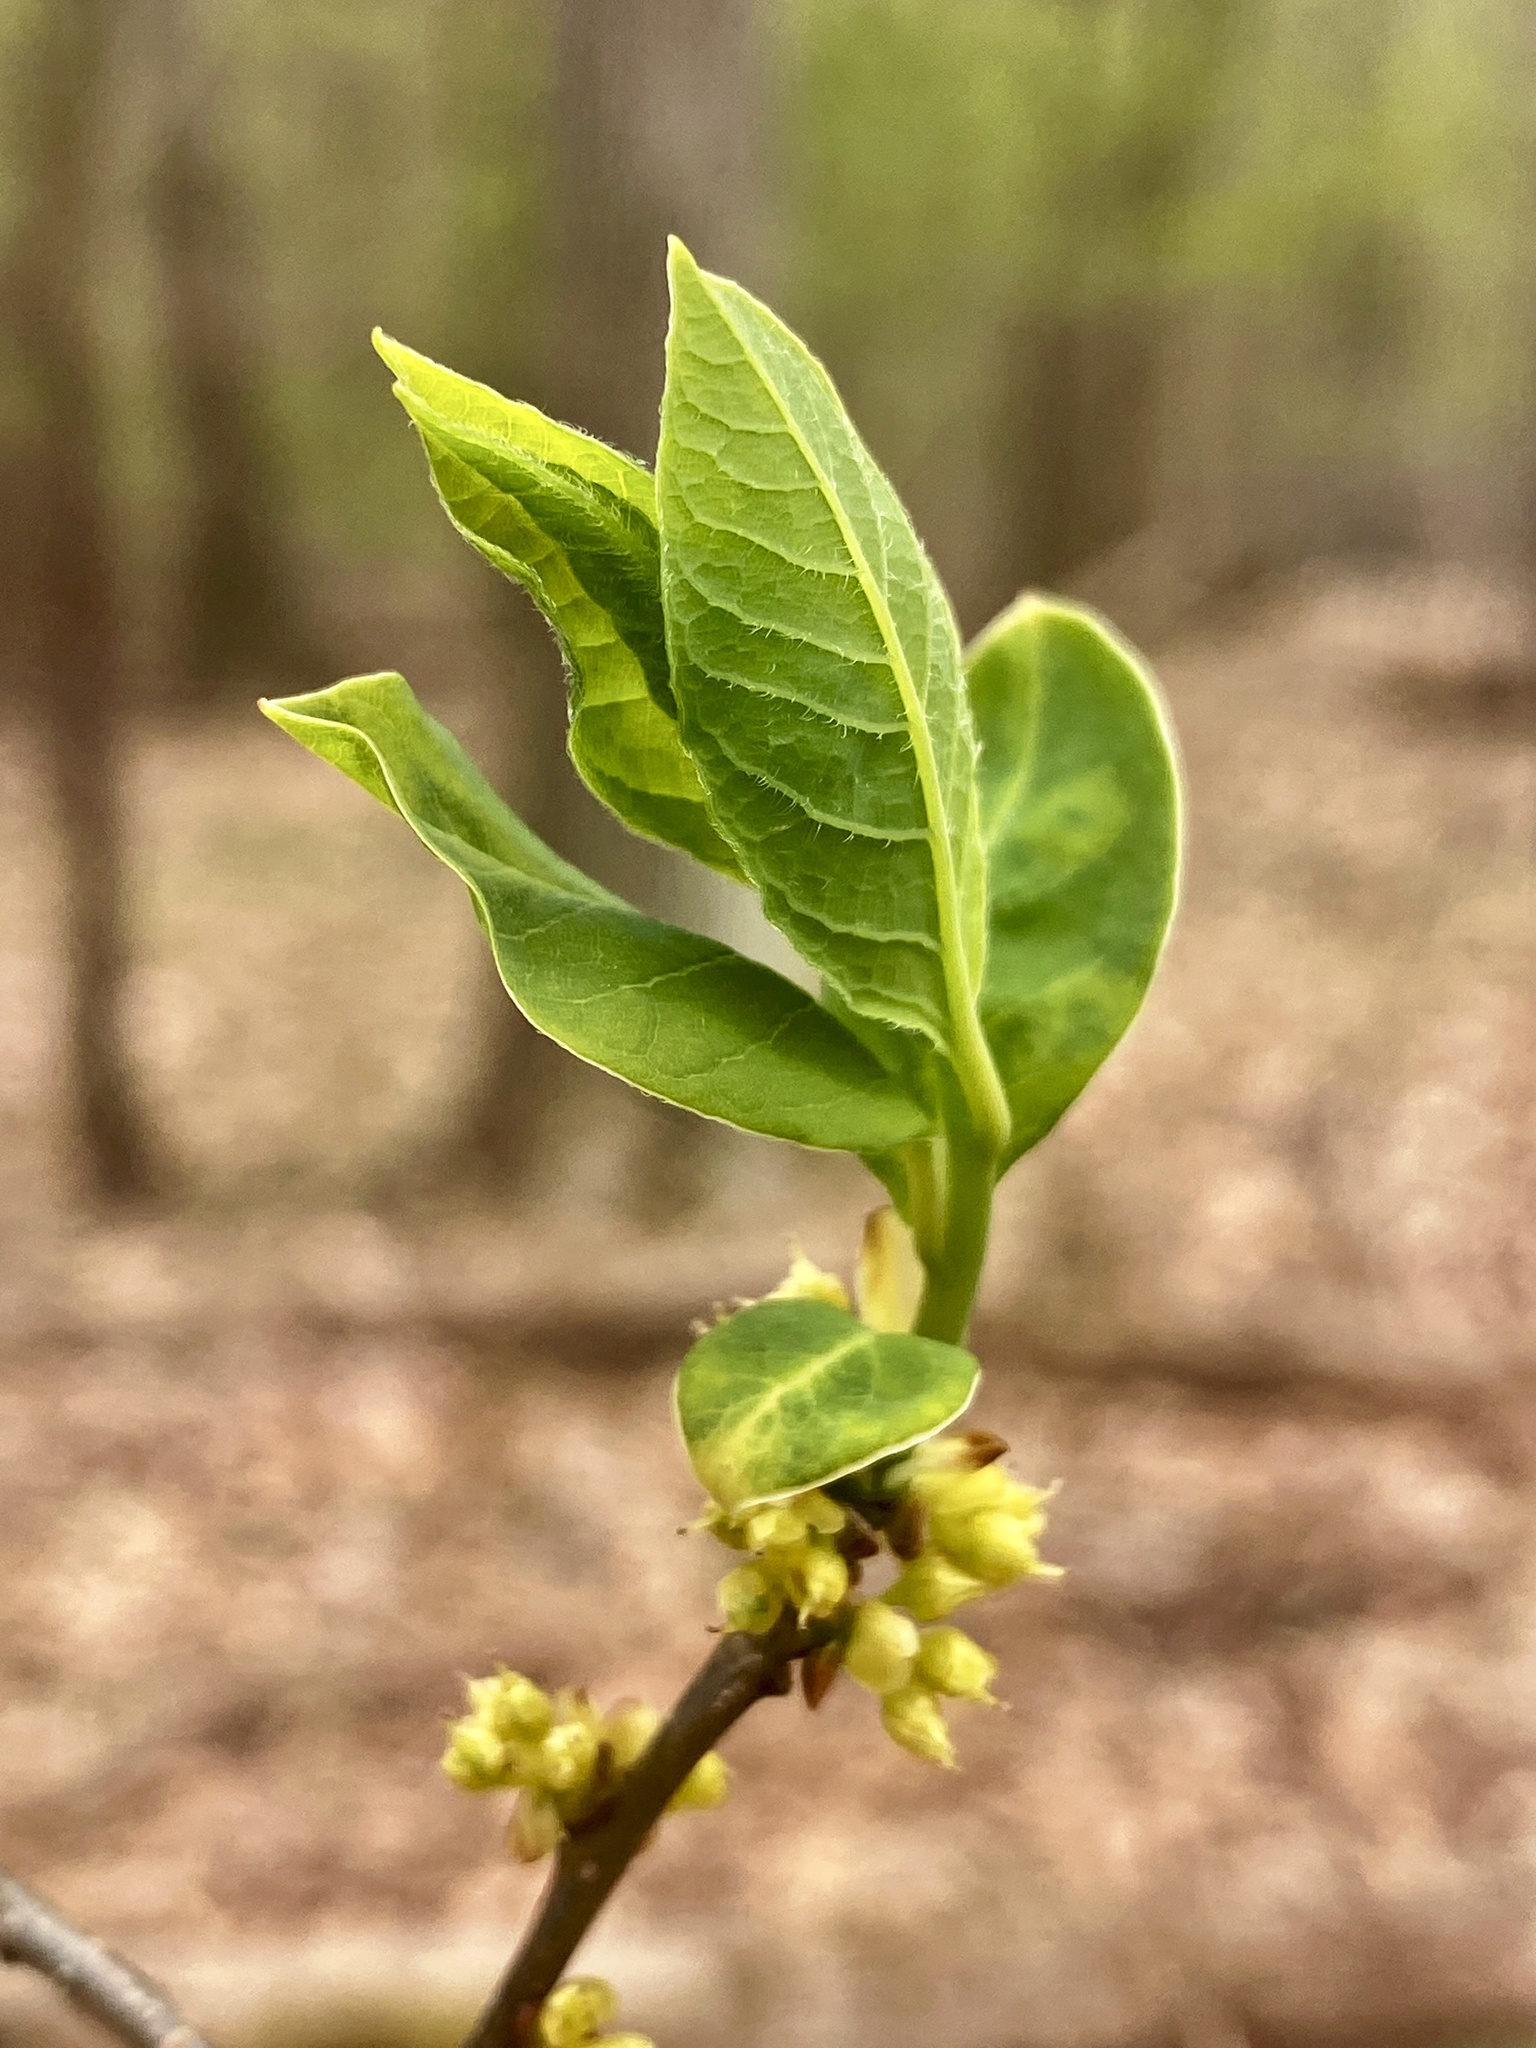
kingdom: Plantae
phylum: Tracheophyta
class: Magnoliopsida
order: Laurales
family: Lauraceae
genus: Lindera
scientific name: Lindera benzoin
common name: Spicebush
